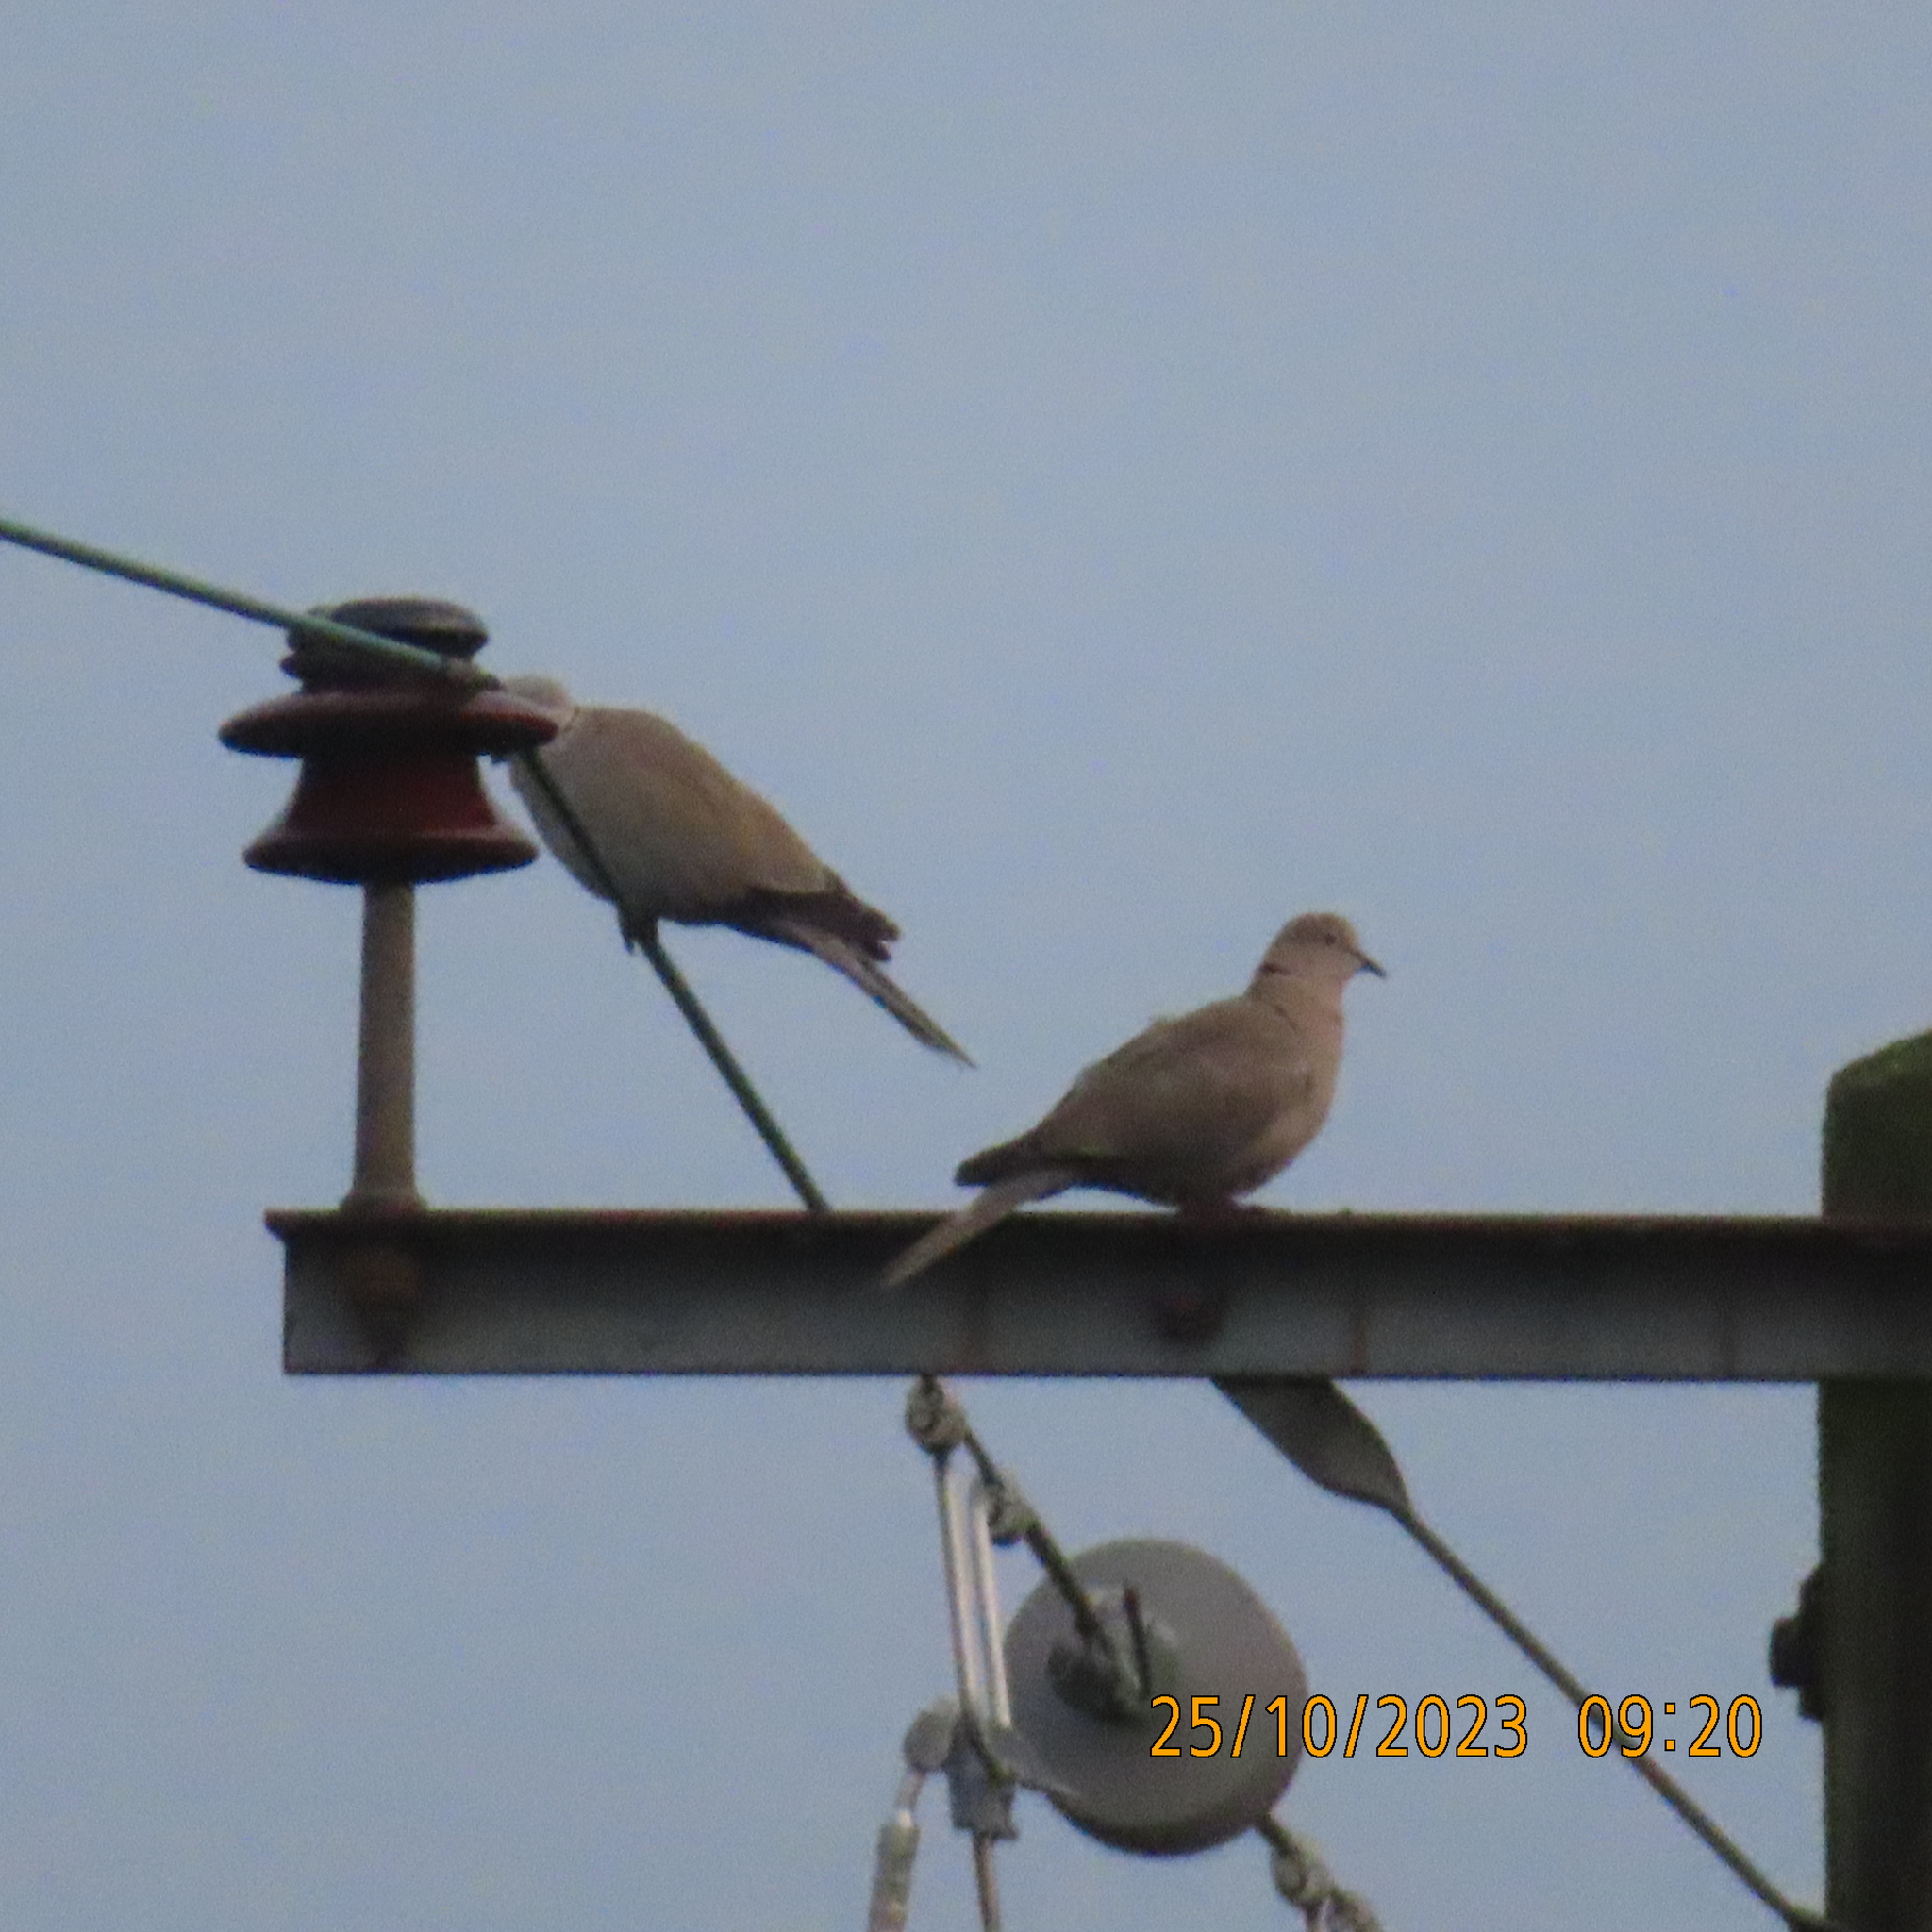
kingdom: Animalia
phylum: Chordata
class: Aves
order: Columbiformes
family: Columbidae
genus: Streptopelia
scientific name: Streptopelia decaocto
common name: Eurasian collared dove
